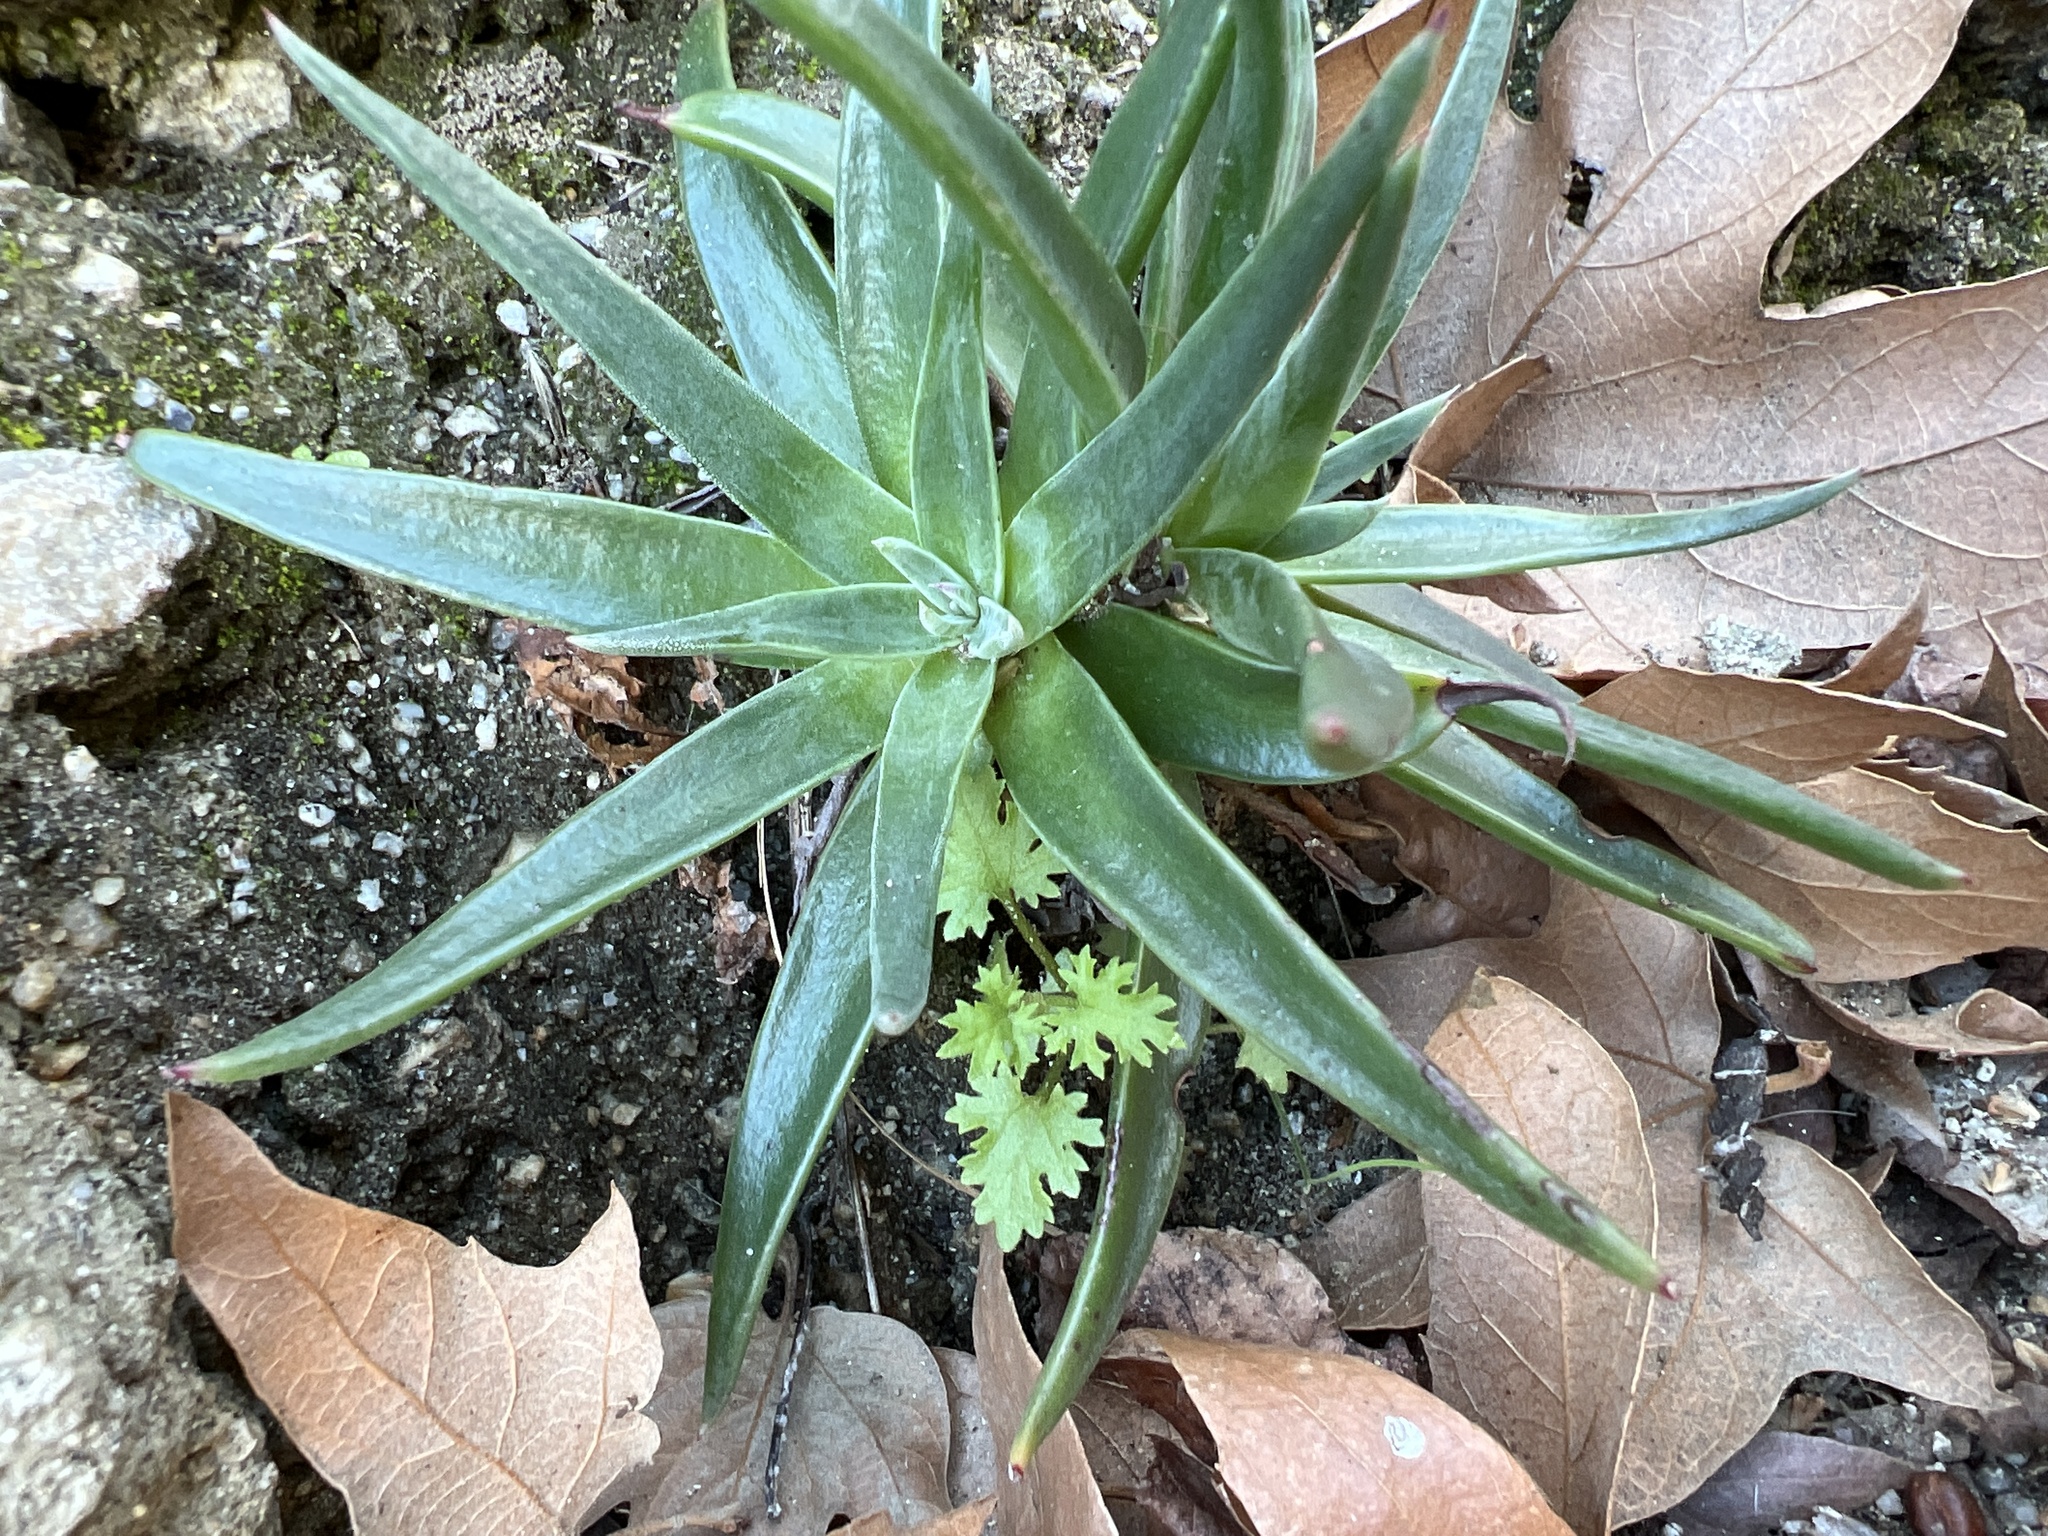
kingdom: Plantae
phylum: Tracheophyta
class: Magnoliopsida
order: Saxifragales
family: Crassulaceae
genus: Dudleya
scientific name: Dudleya saxosa
